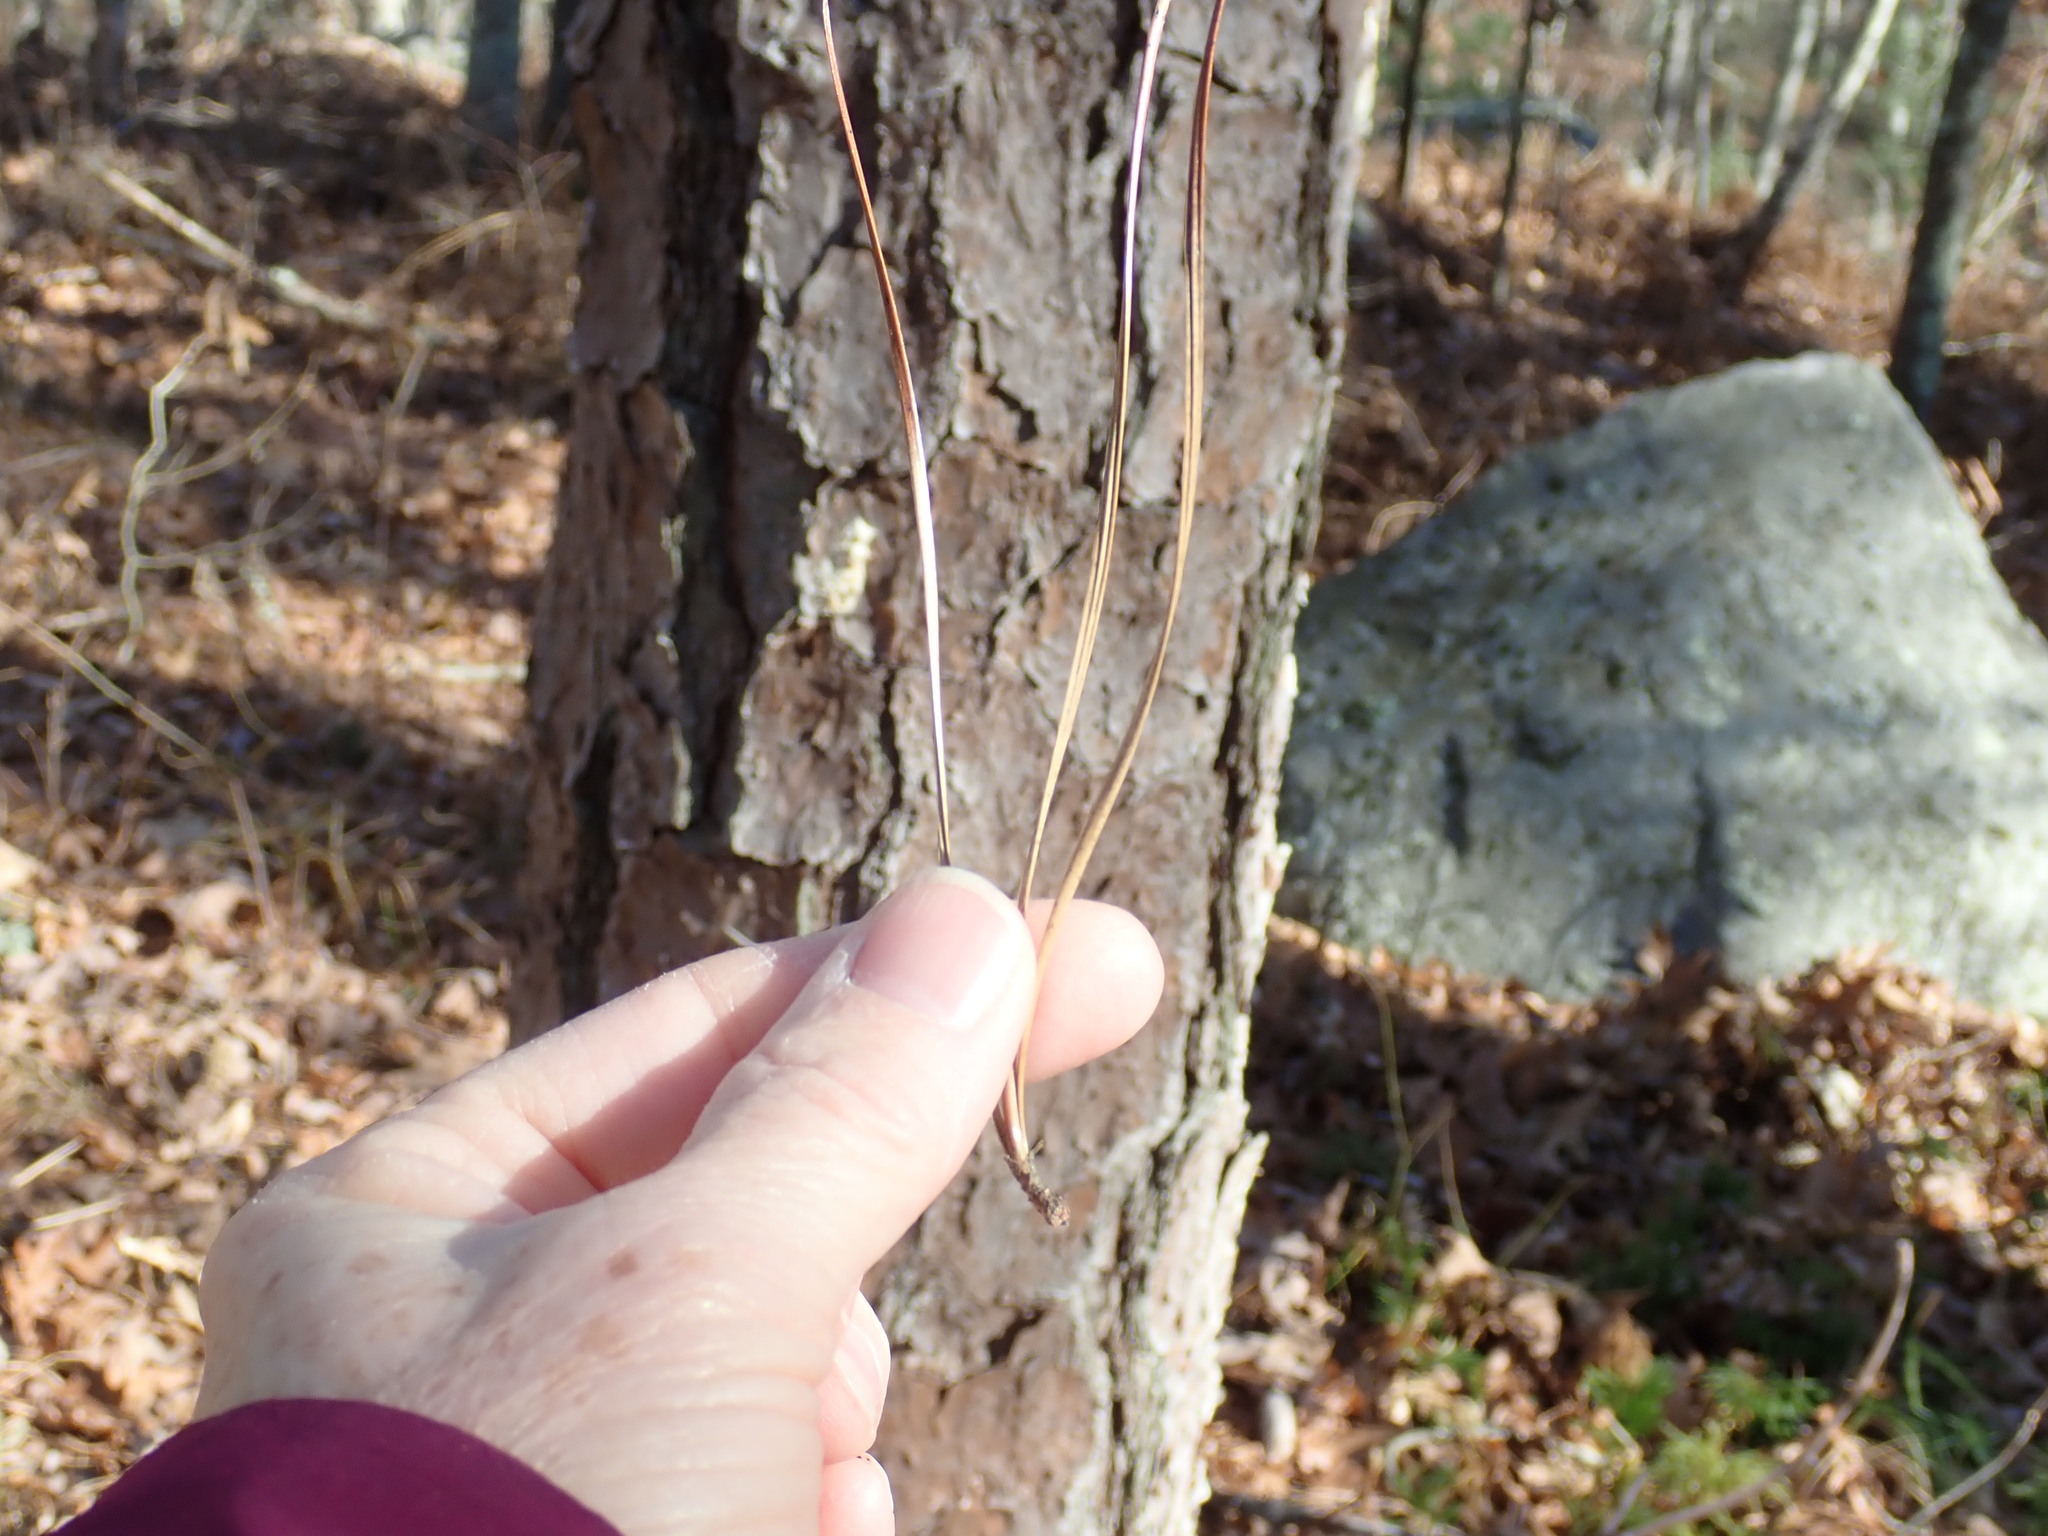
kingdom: Plantae
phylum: Tracheophyta
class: Pinopsida
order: Pinales
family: Pinaceae
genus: Pinus
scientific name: Pinus rigida
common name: Pitch pine
